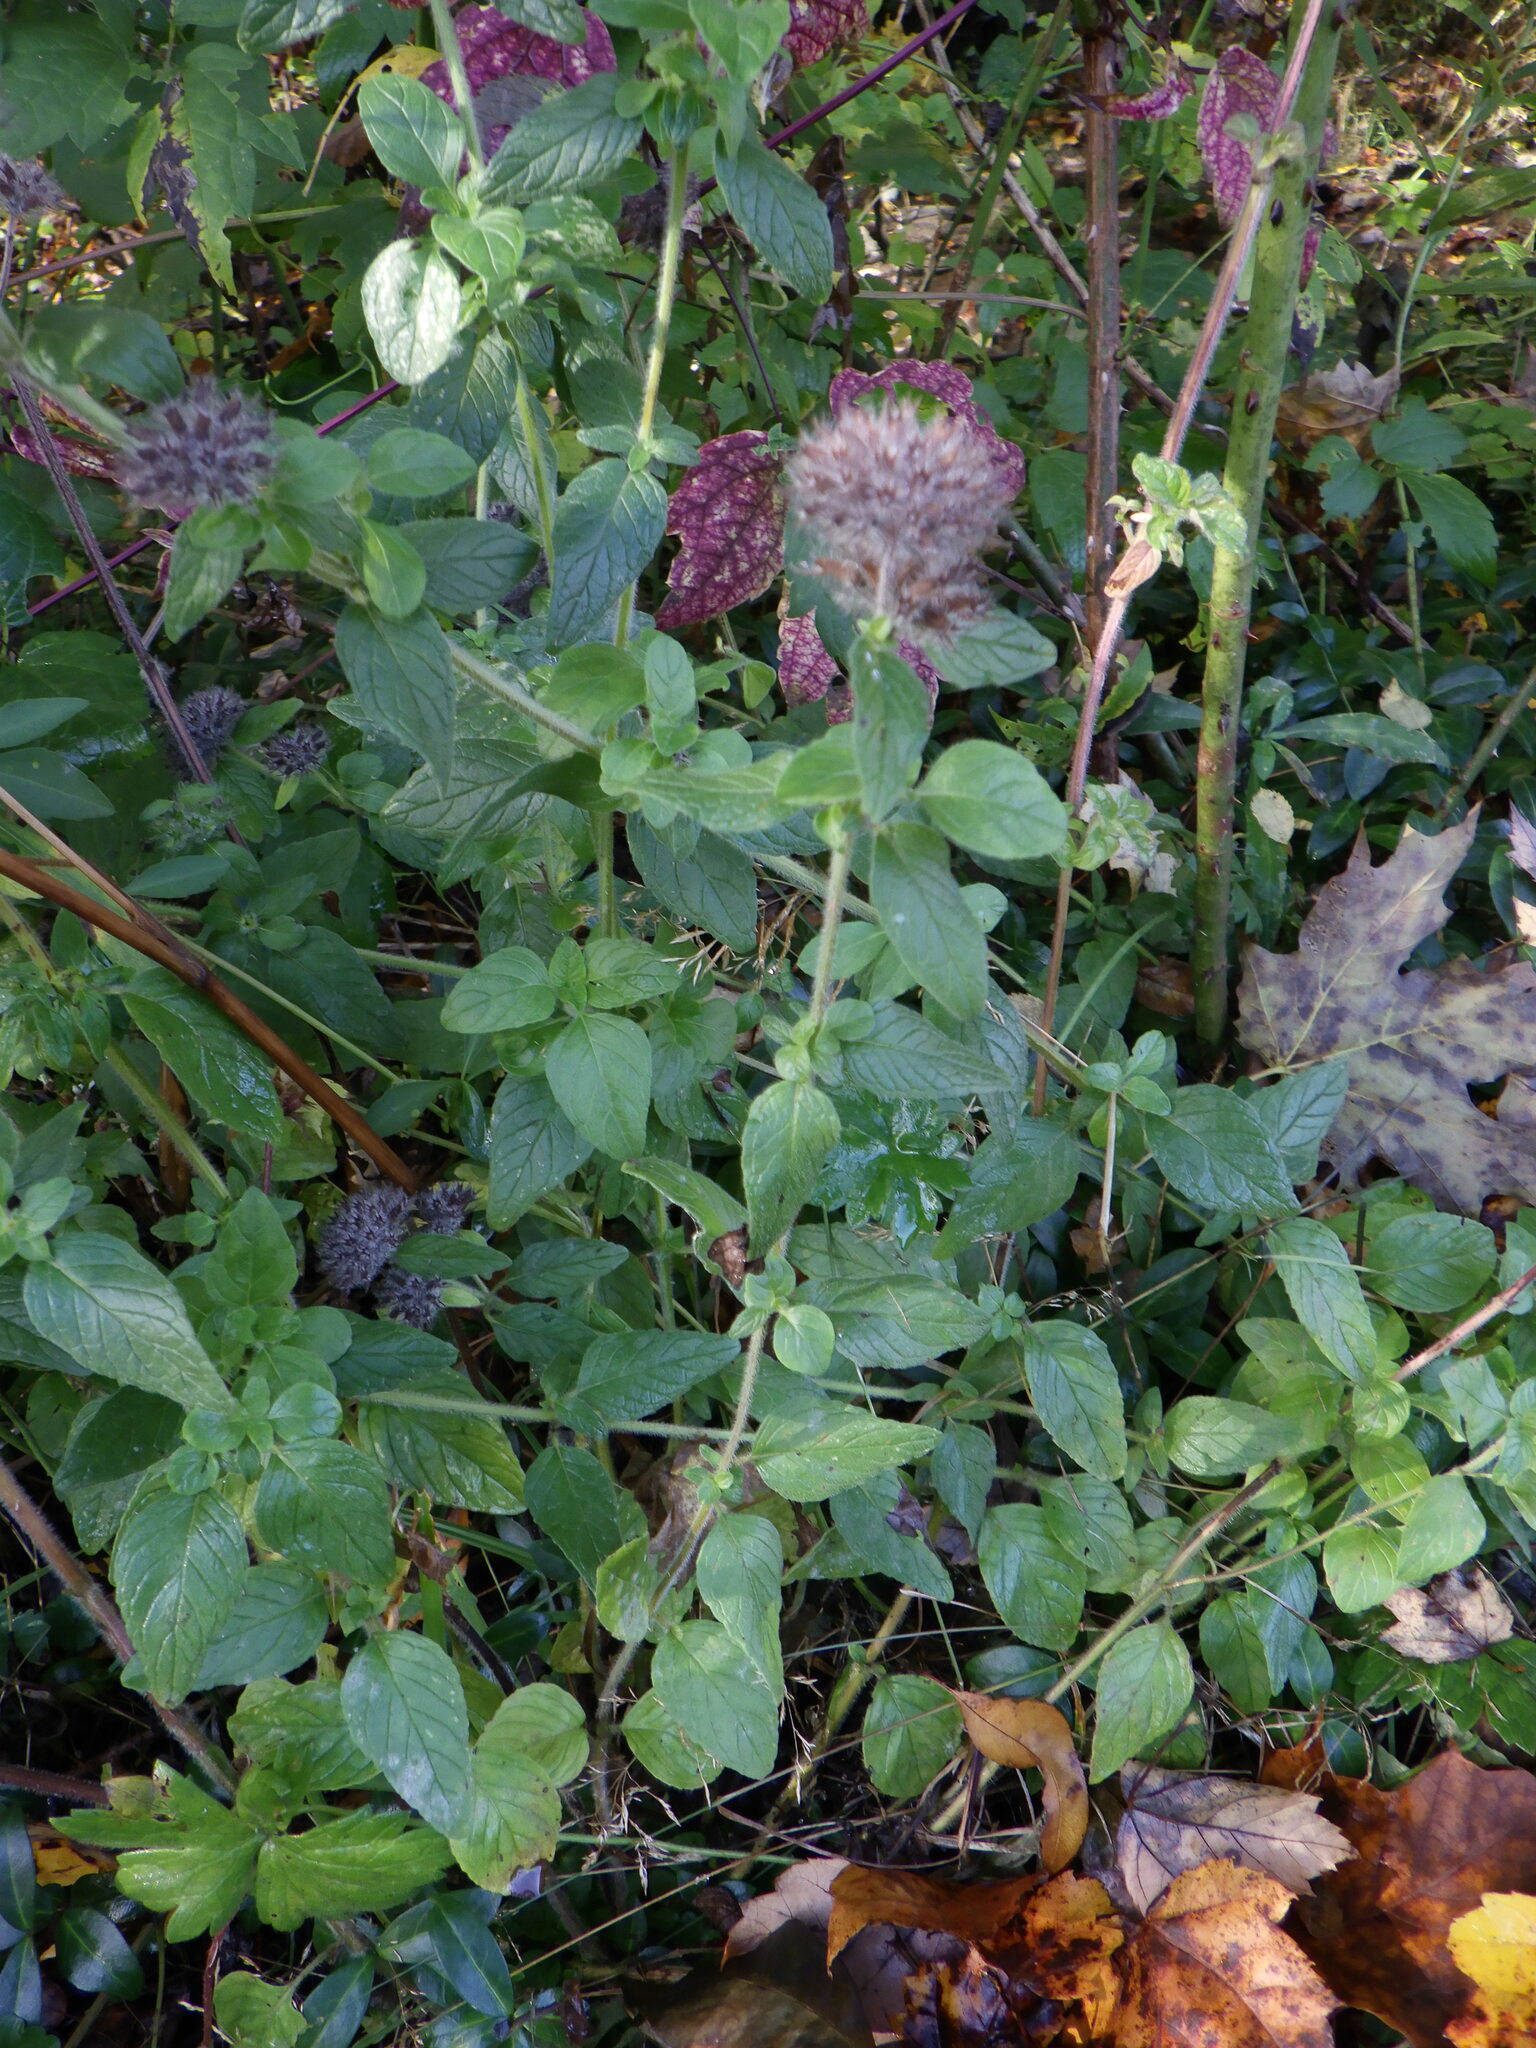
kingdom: Plantae
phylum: Tracheophyta
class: Magnoliopsida
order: Lamiales
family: Lamiaceae
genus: Clinopodium
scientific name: Clinopodium vulgare
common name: Wild basil
